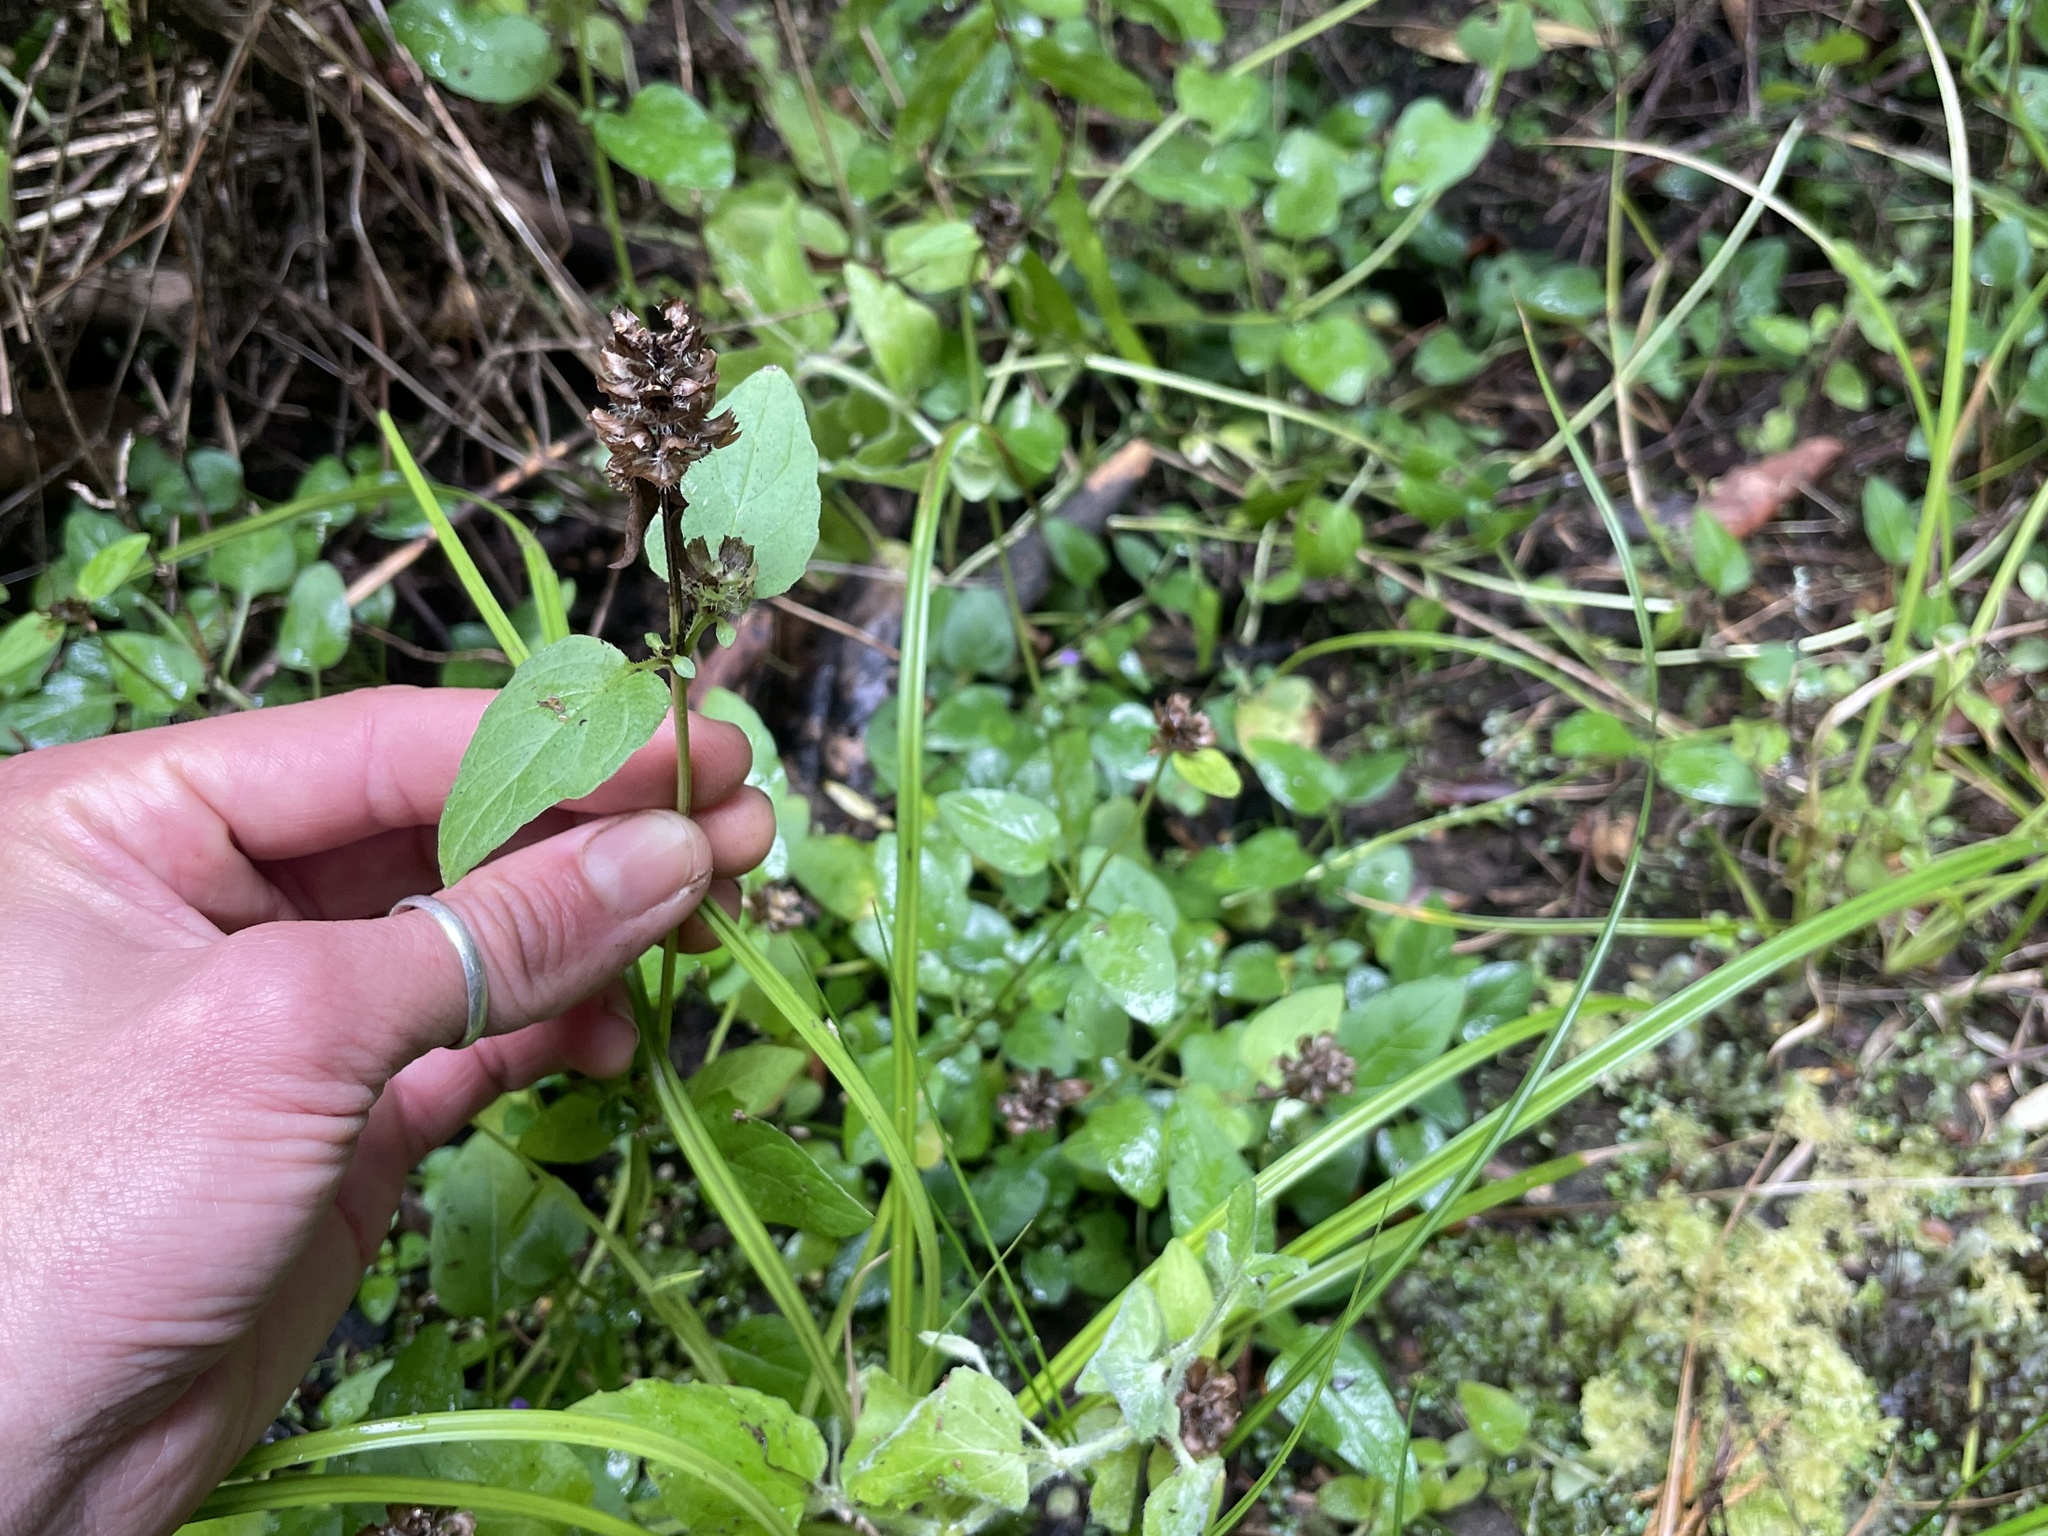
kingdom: Plantae
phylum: Tracheophyta
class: Magnoliopsida
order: Lamiales
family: Lamiaceae
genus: Prunella
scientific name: Prunella vulgaris
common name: Heal-all
